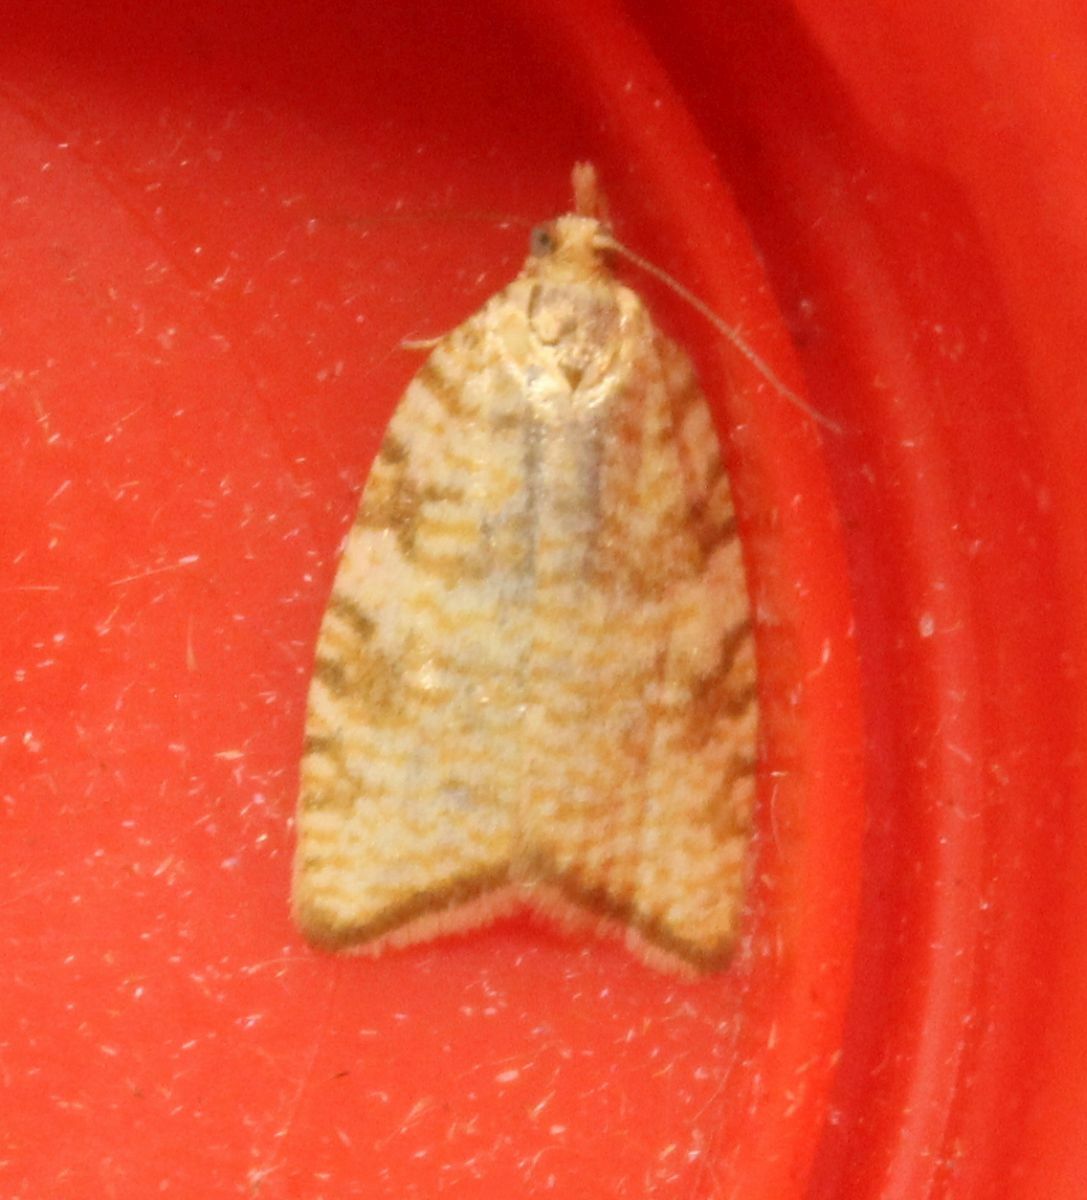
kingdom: Animalia
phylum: Arthropoda
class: Insecta
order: Lepidoptera
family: Tortricidae
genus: Aleimma
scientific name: Aleimma loeflingiana
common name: Yellow oak button
